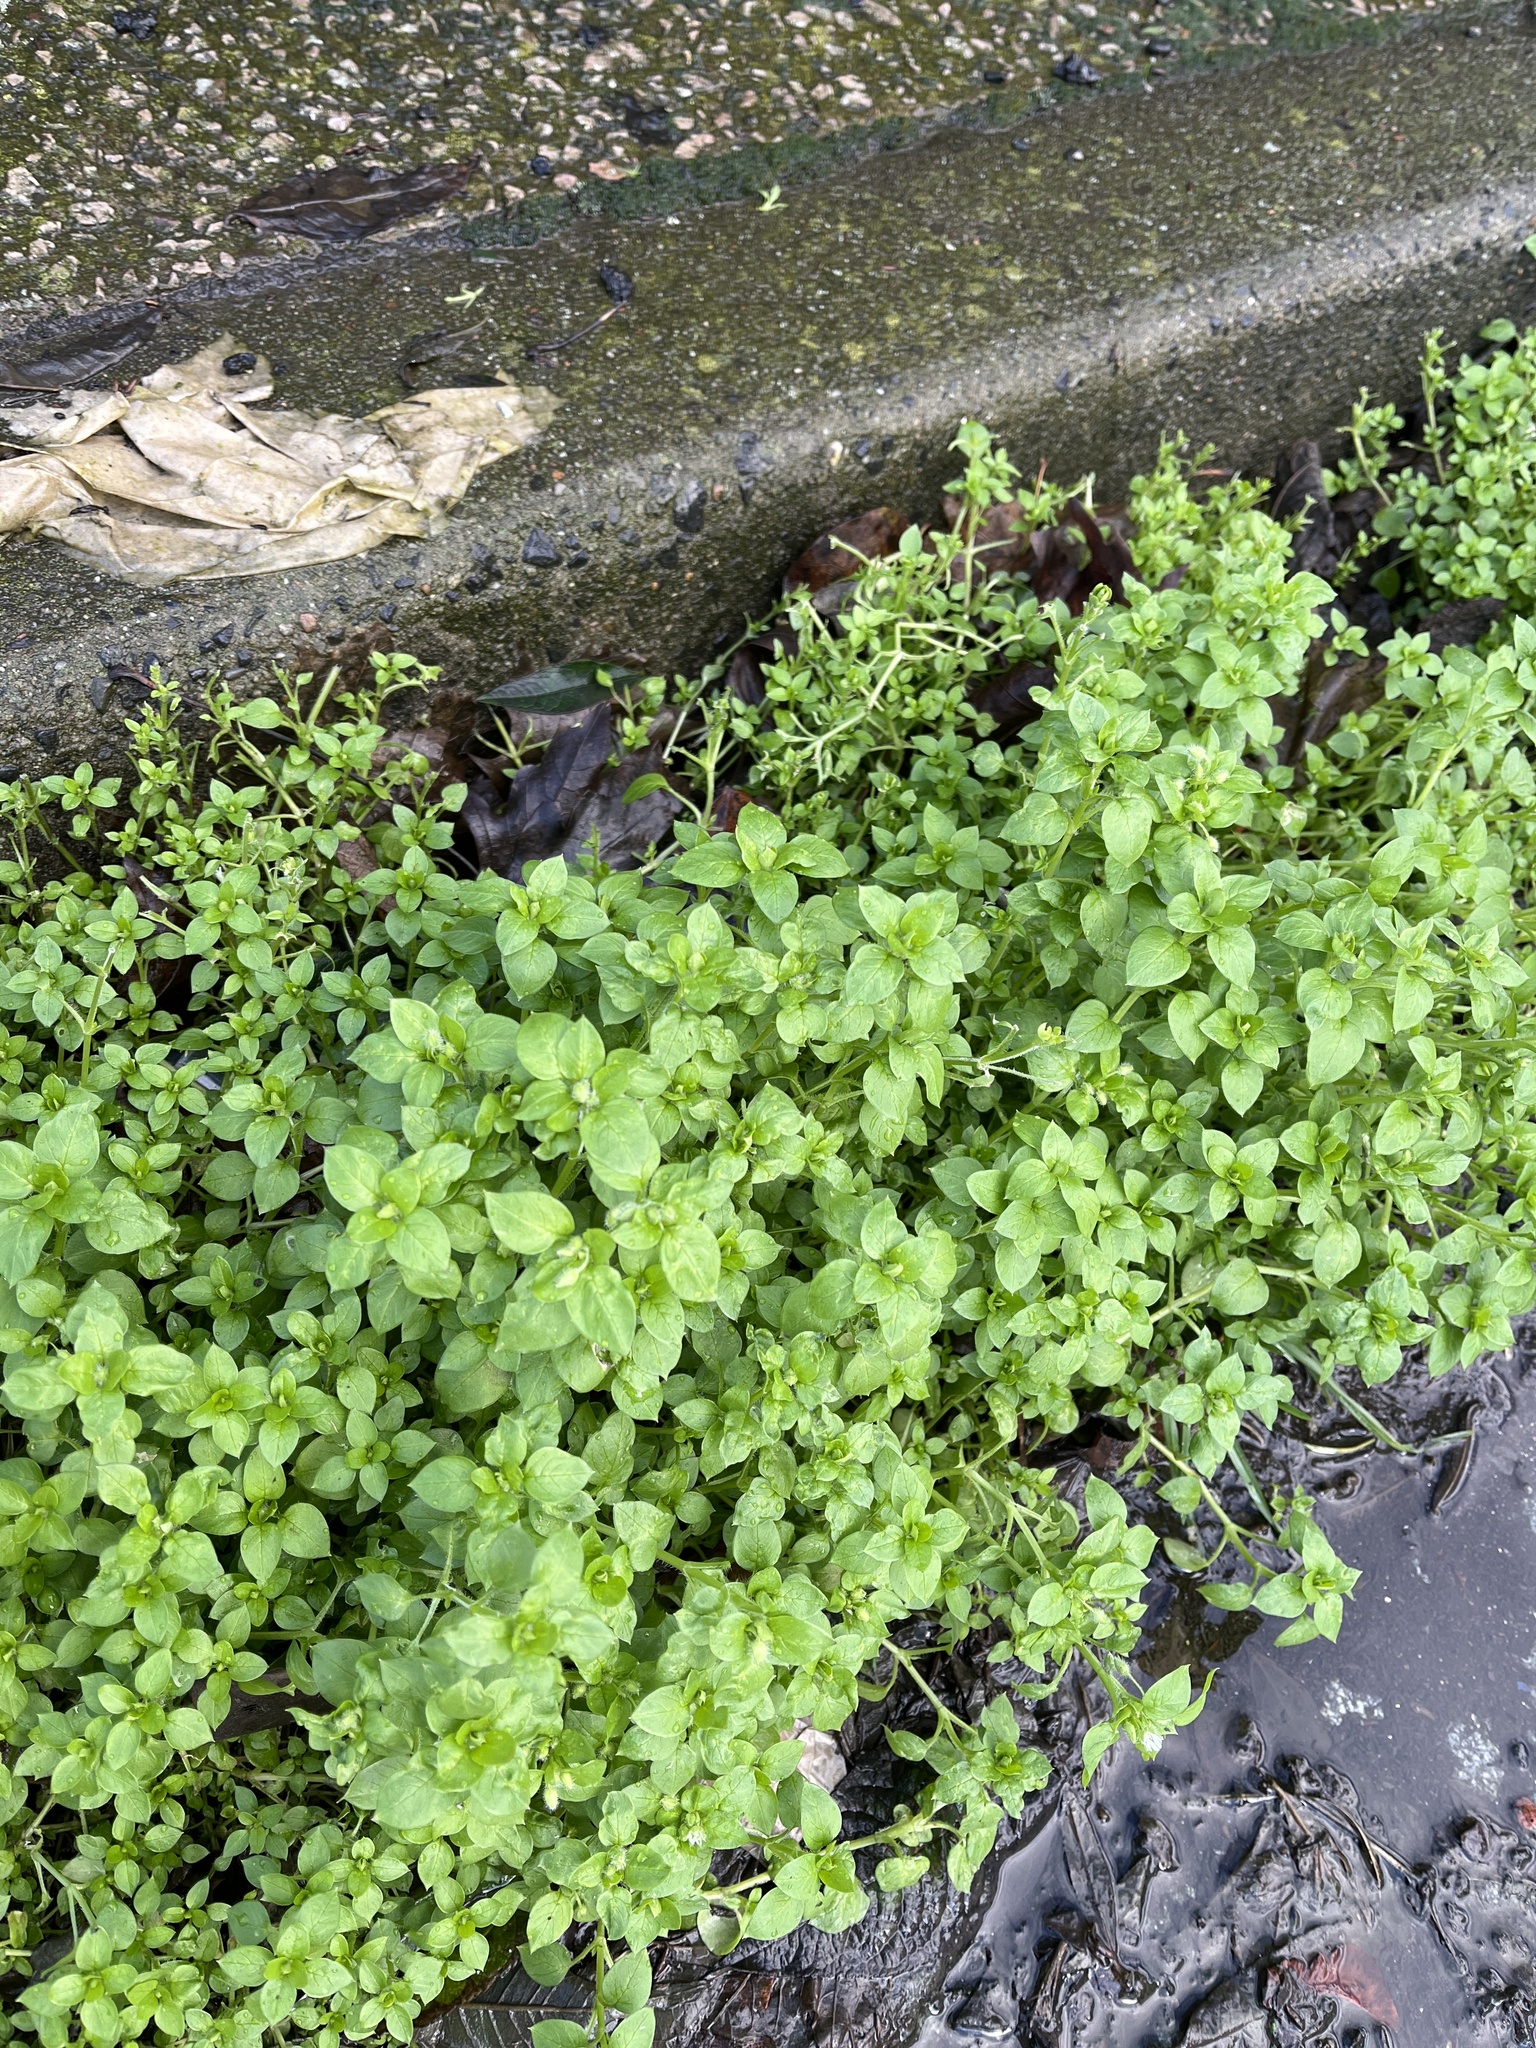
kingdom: Plantae
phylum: Tracheophyta
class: Magnoliopsida
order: Caryophyllales
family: Caryophyllaceae
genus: Stellaria
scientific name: Stellaria media
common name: Common chickweed
